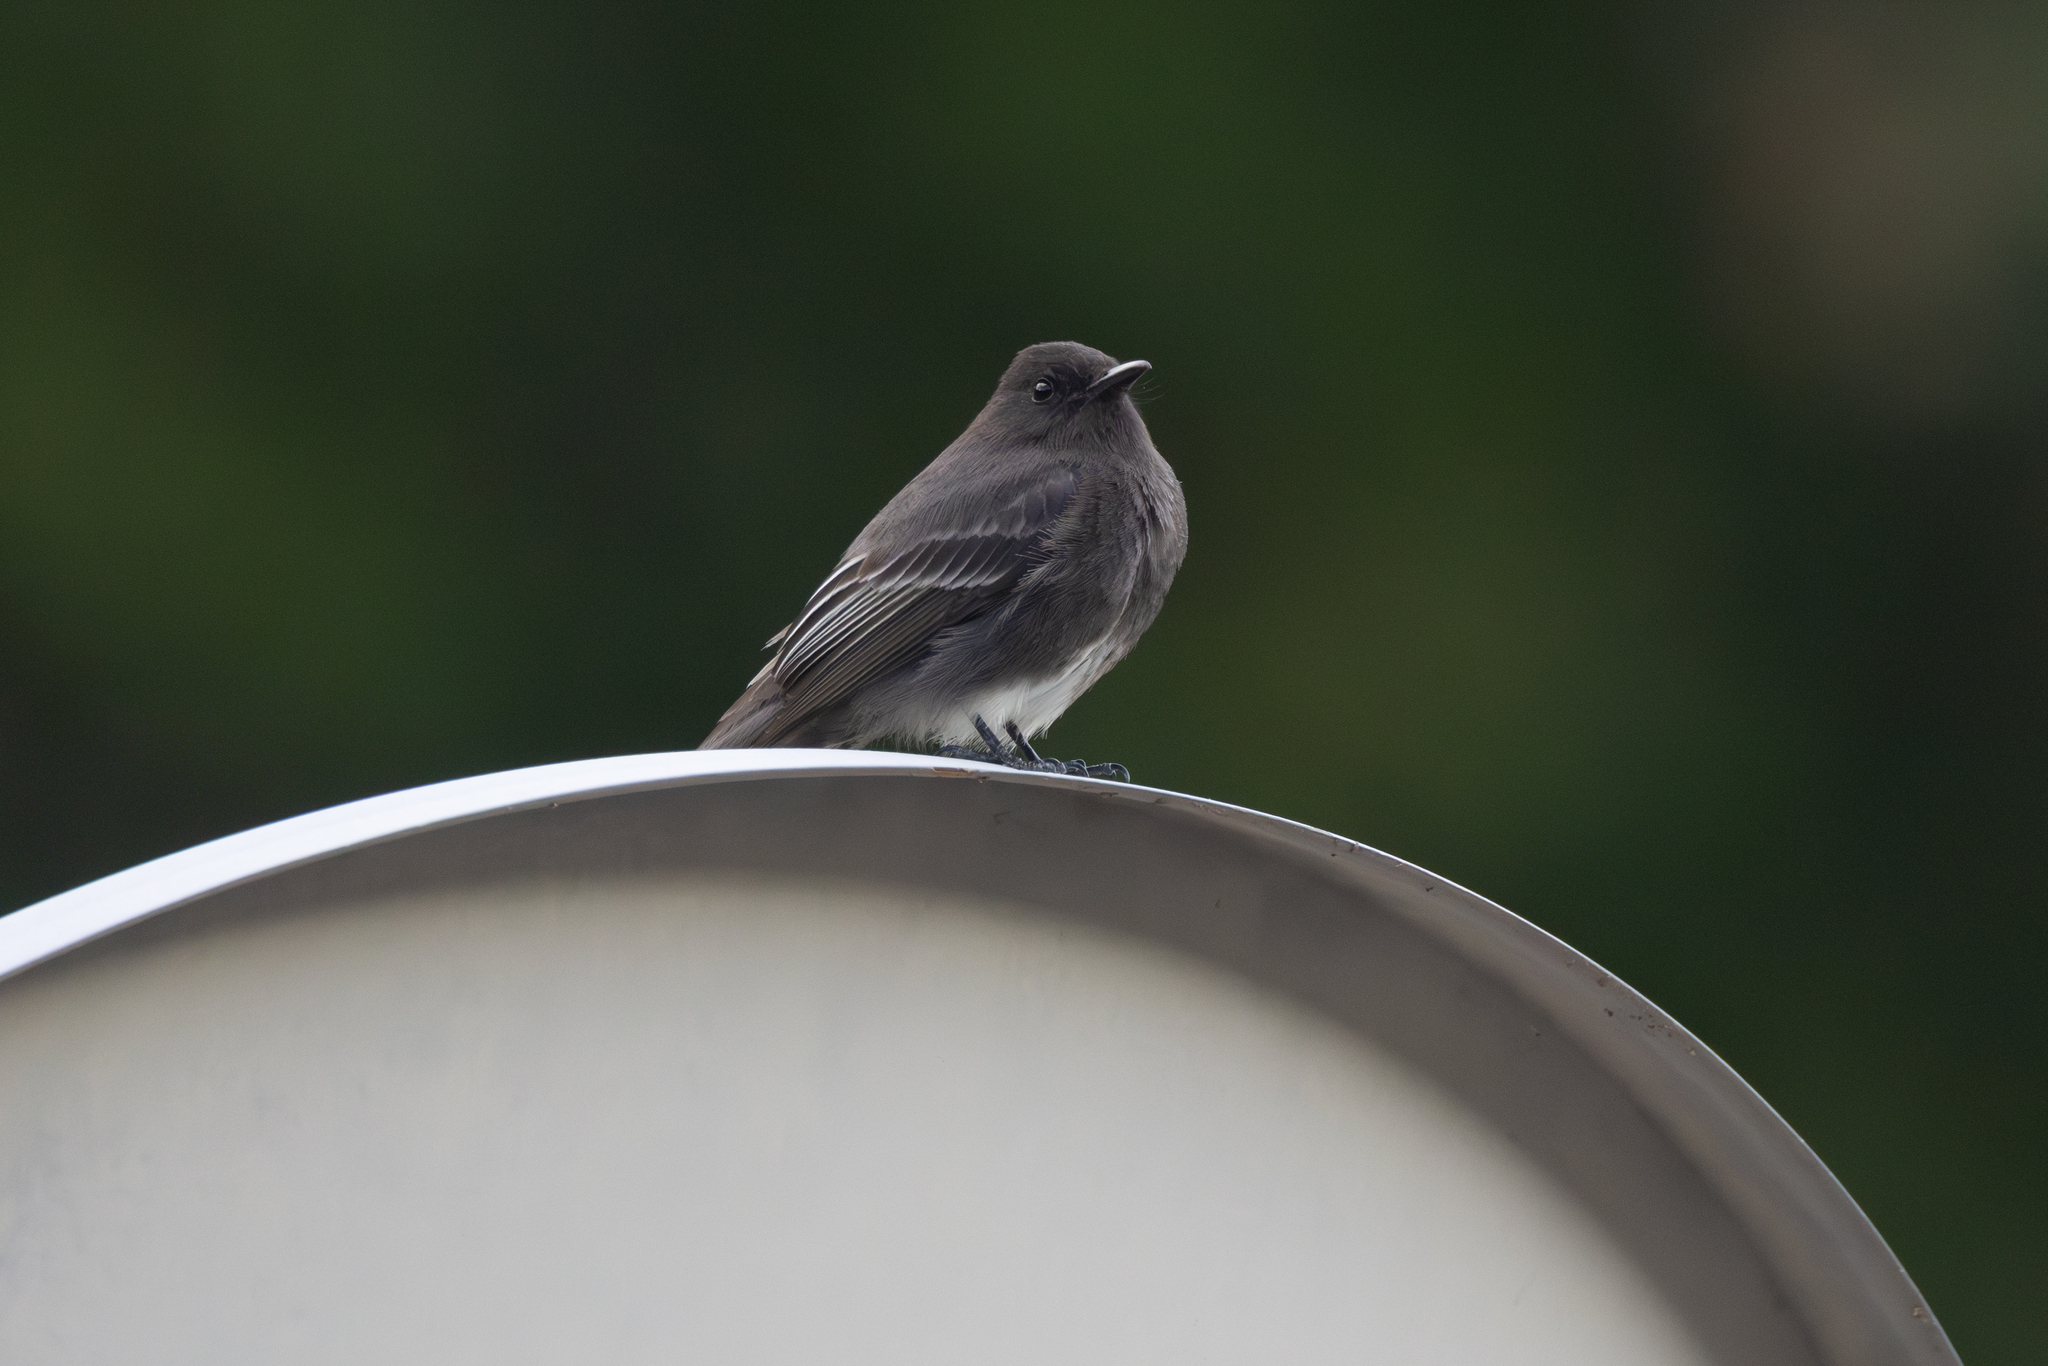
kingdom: Animalia
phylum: Chordata
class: Aves
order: Passeriformes
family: Tyrannidae
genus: Sayornis
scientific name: Sayornis nigricans
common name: Black phoebe
